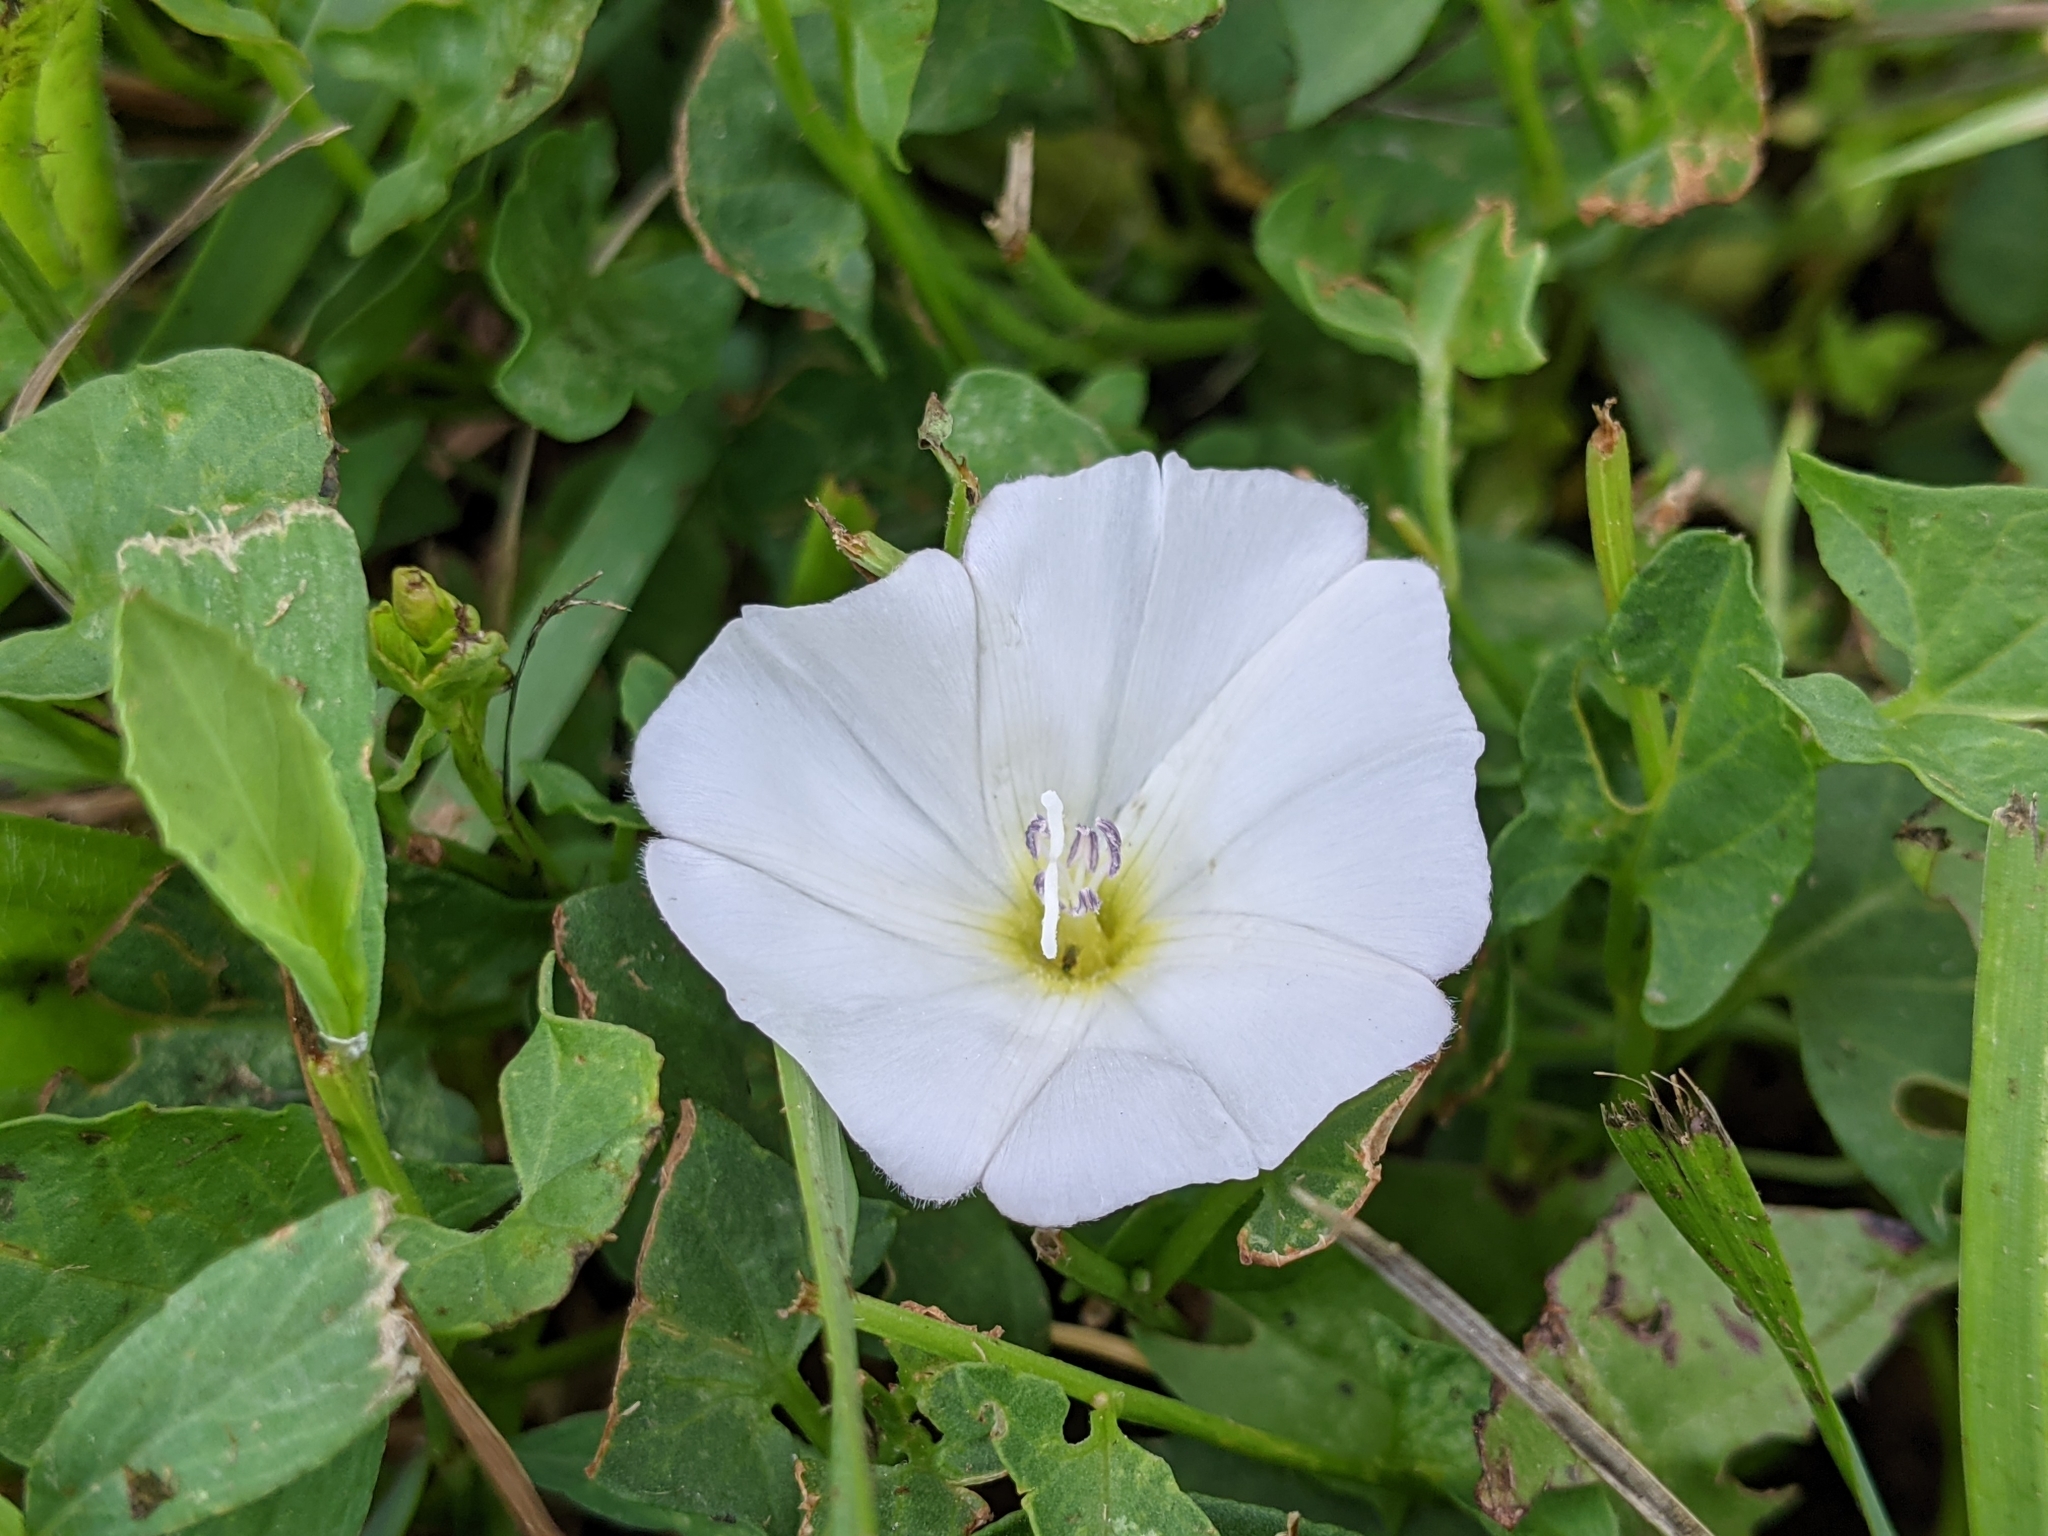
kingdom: Plantae
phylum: Tracheophyta
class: Magnoliopsida
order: Solanales
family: Convolvulaceae
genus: Convolvulus
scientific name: Convolvulus arvensis
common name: Field bindweed
